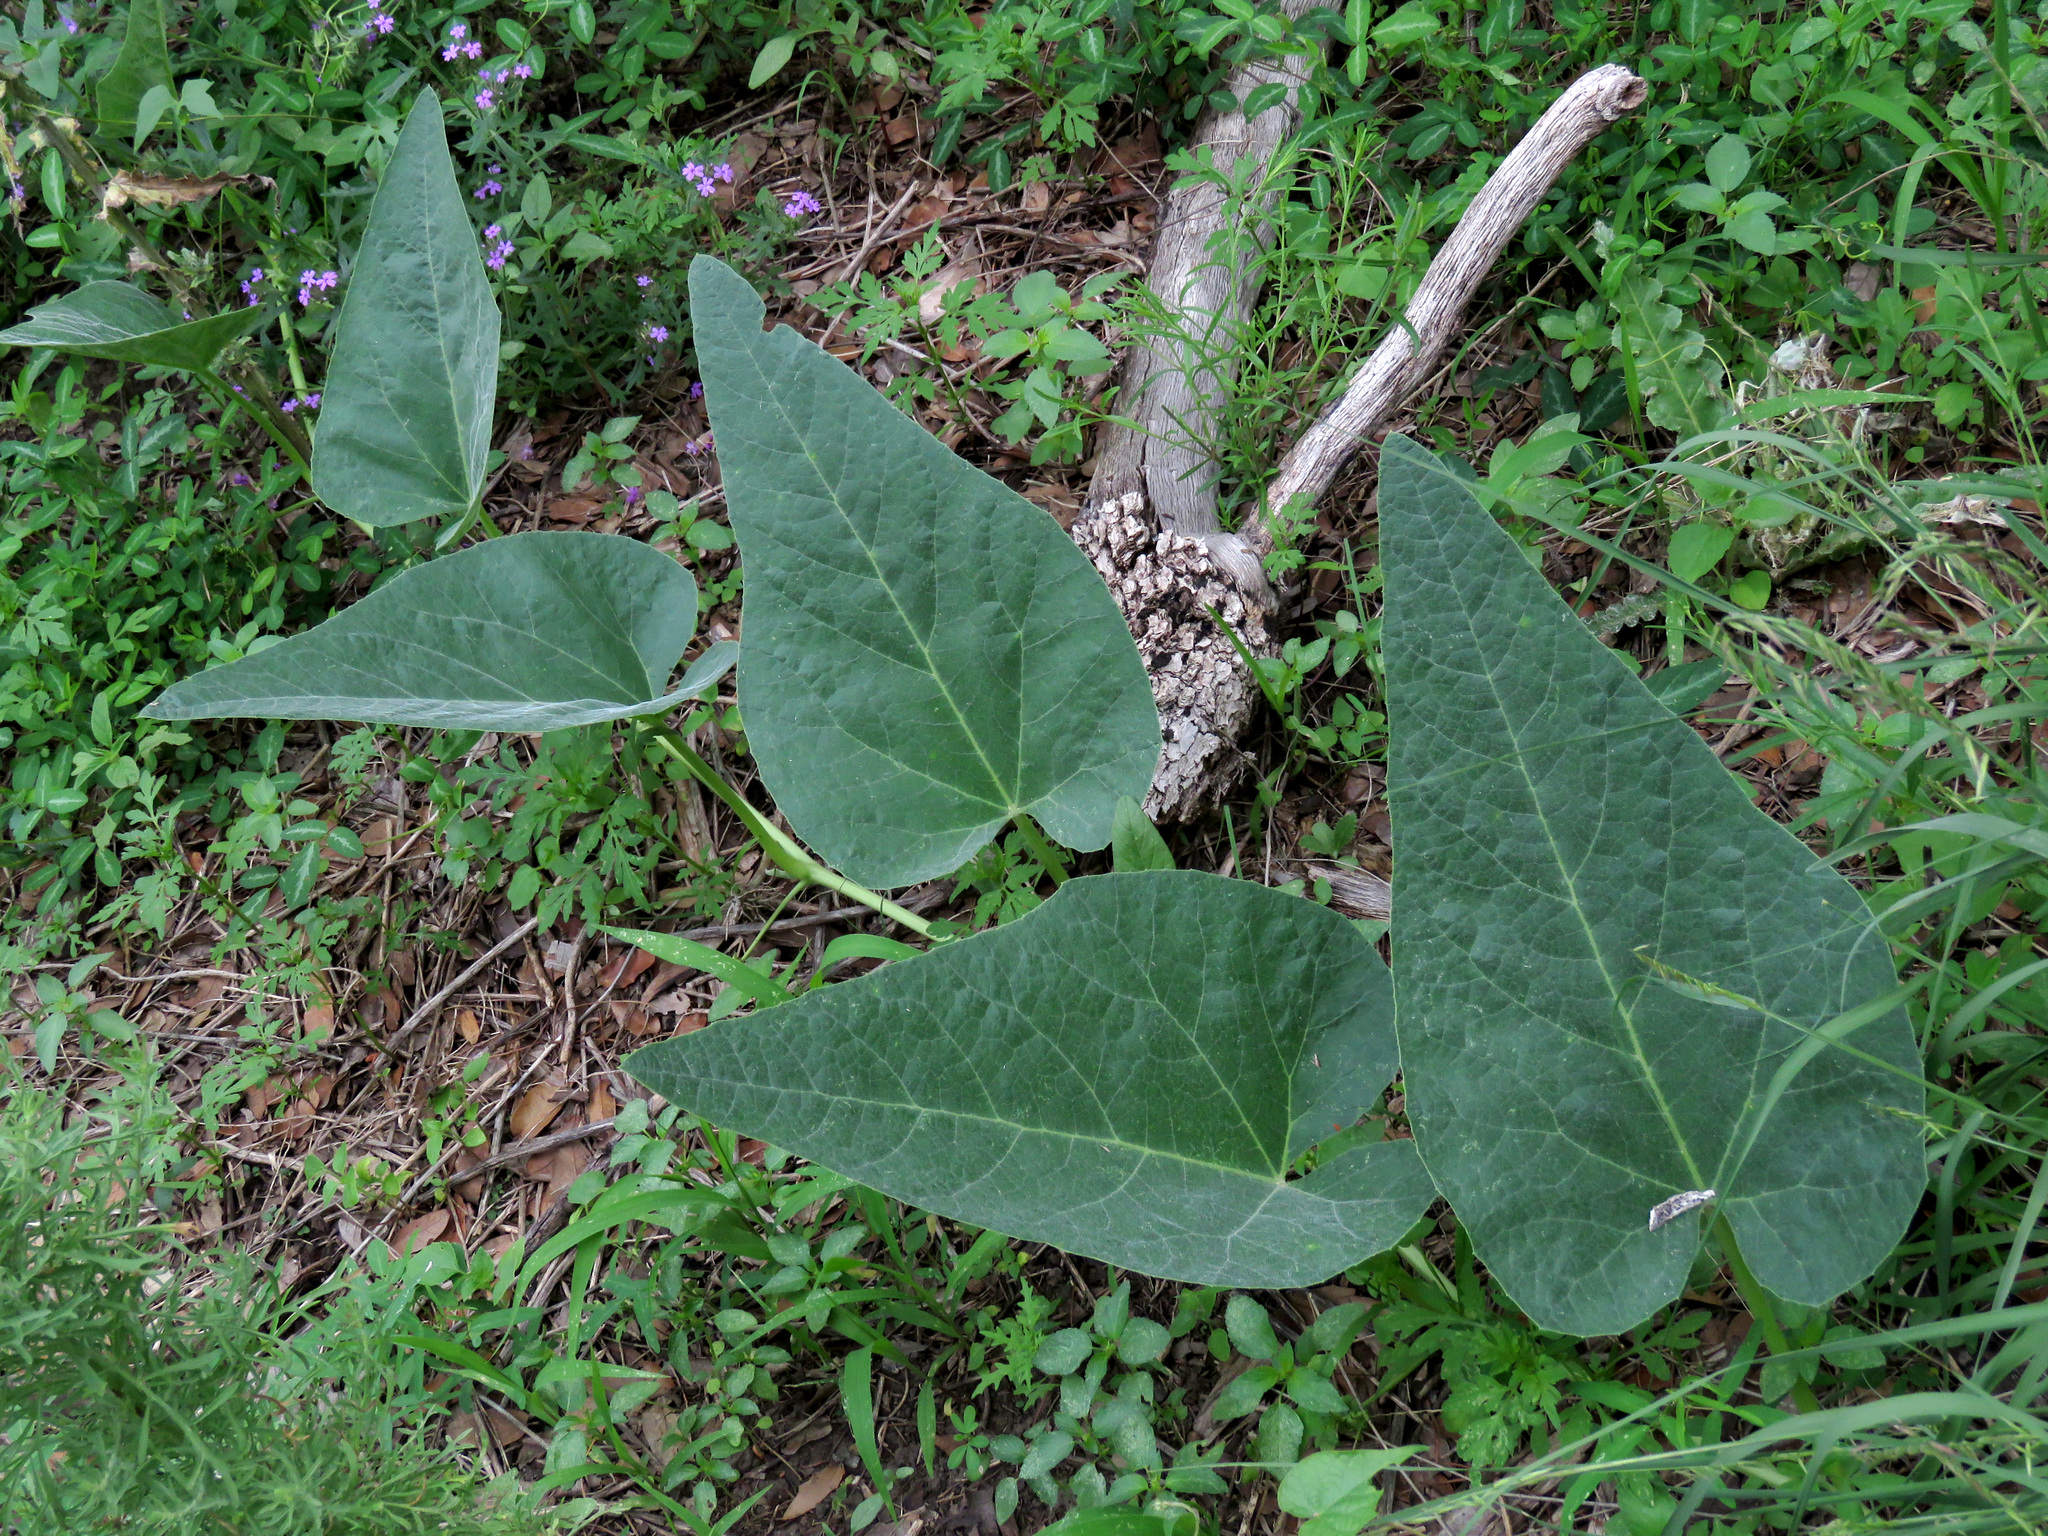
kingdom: Plantae
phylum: Tracheophyta
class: Magnoliopsida
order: Cucurbitales
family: Cucurbitaceae
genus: Cucurbita
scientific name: Cucurbita foetidissima
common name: Buffalo gourd
